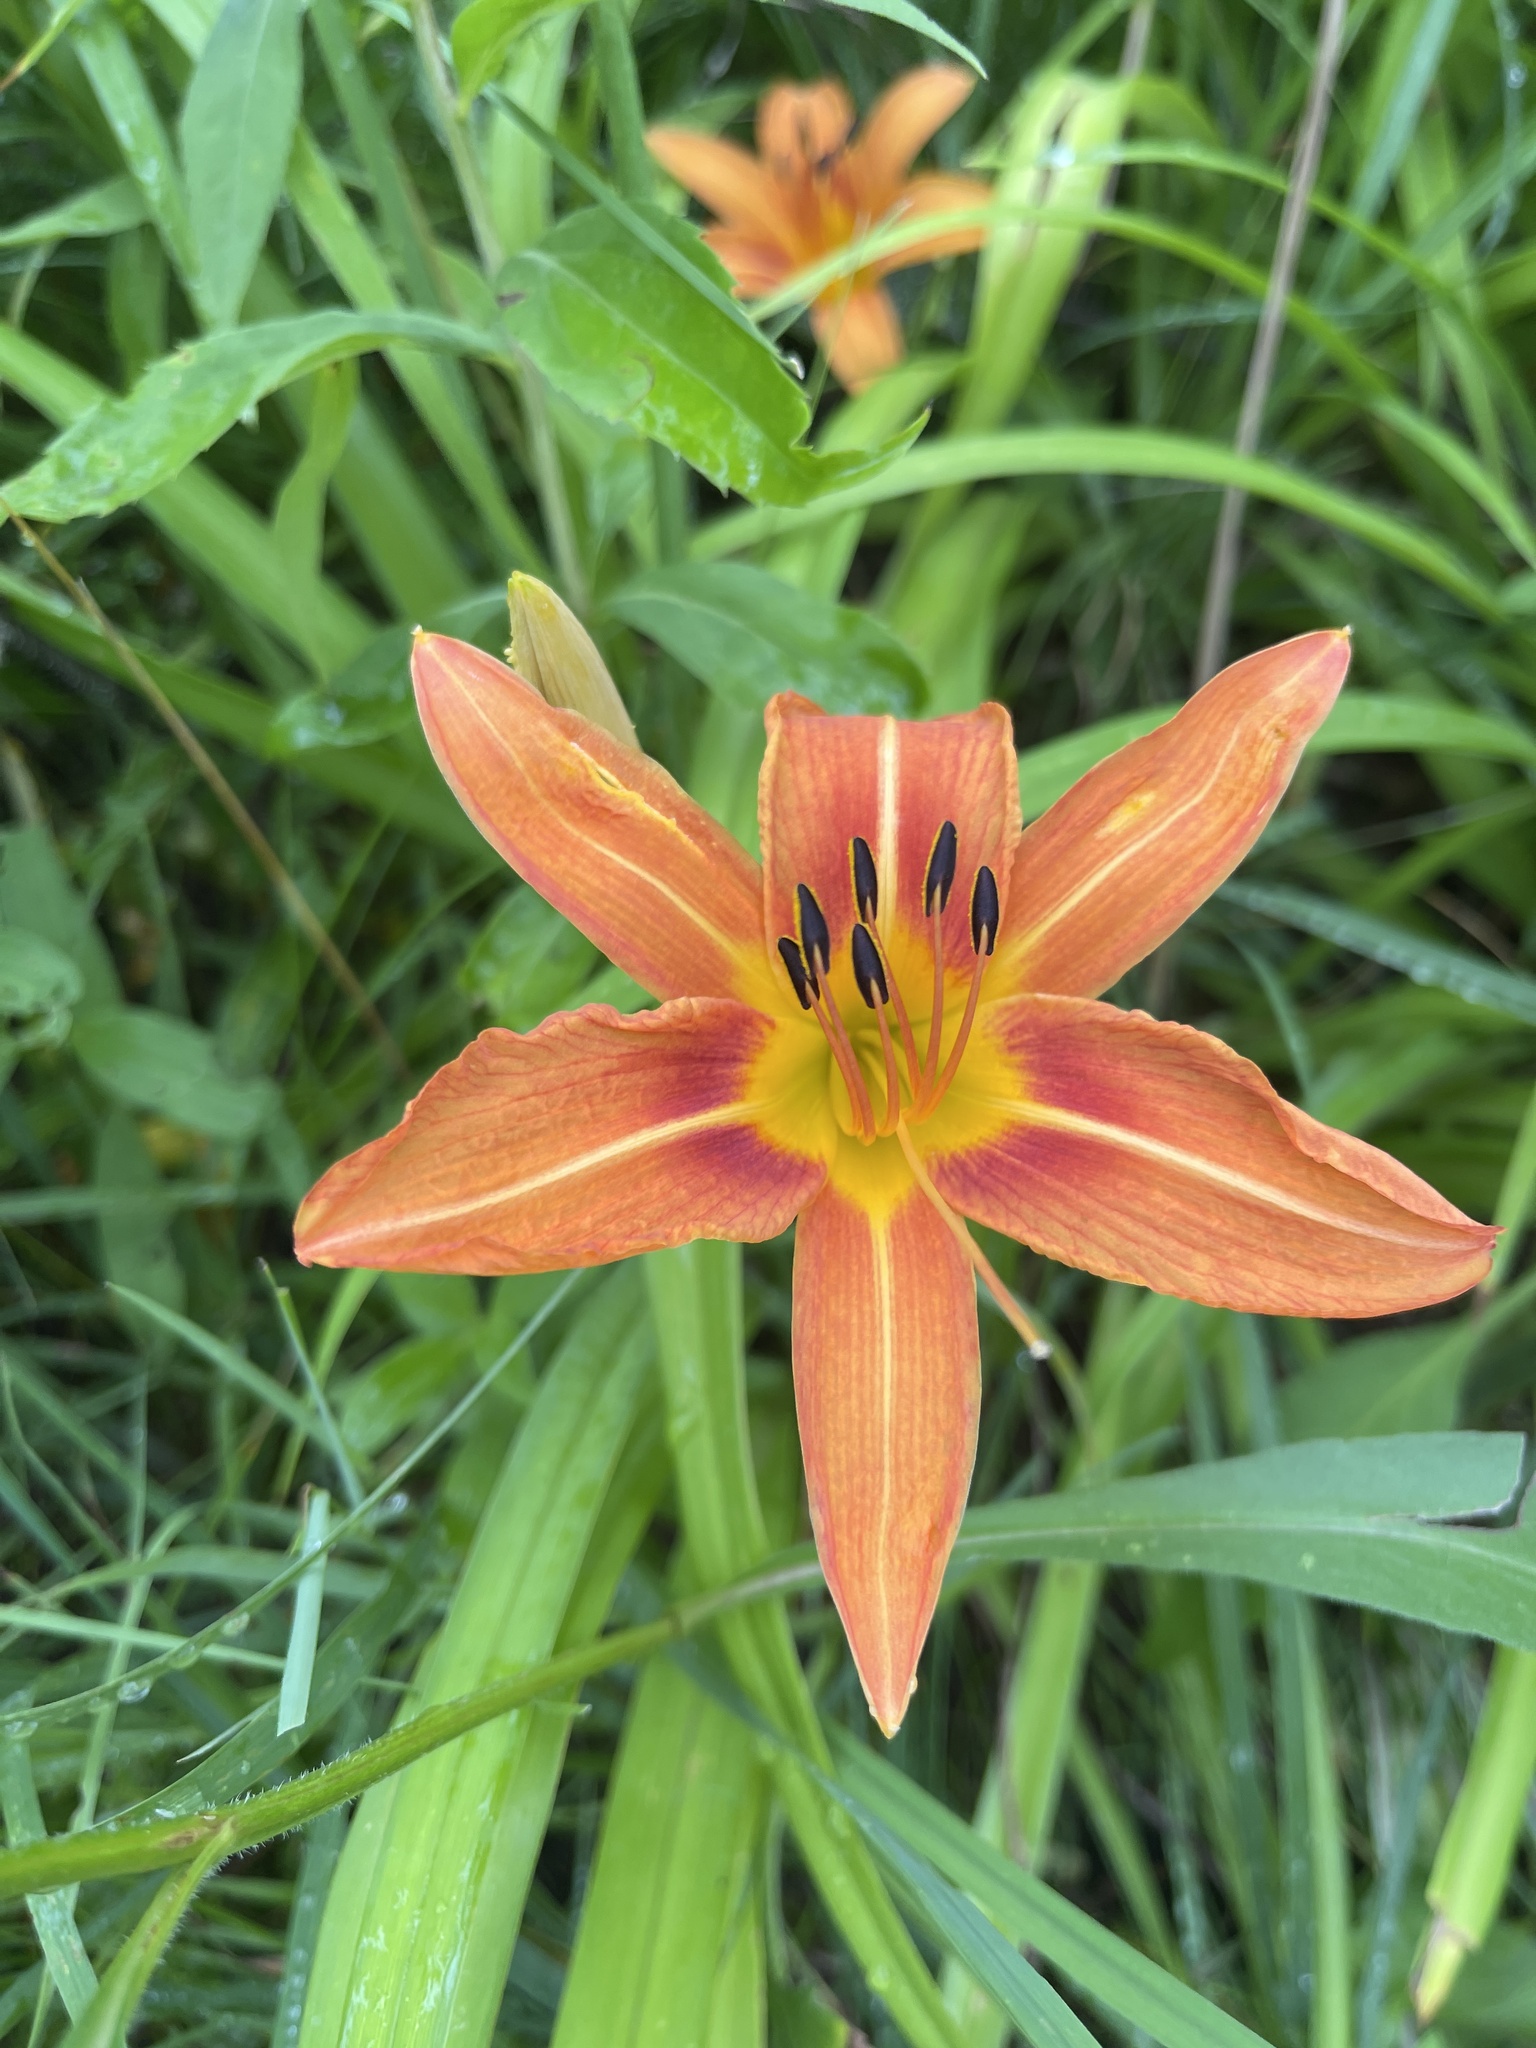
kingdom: Plantae
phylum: Tracheophyta
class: Liliopsida
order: Asparagales
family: Asphodelaceae
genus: Hemerocallis
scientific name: Hemerocallis fulva
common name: Orange day-lily
